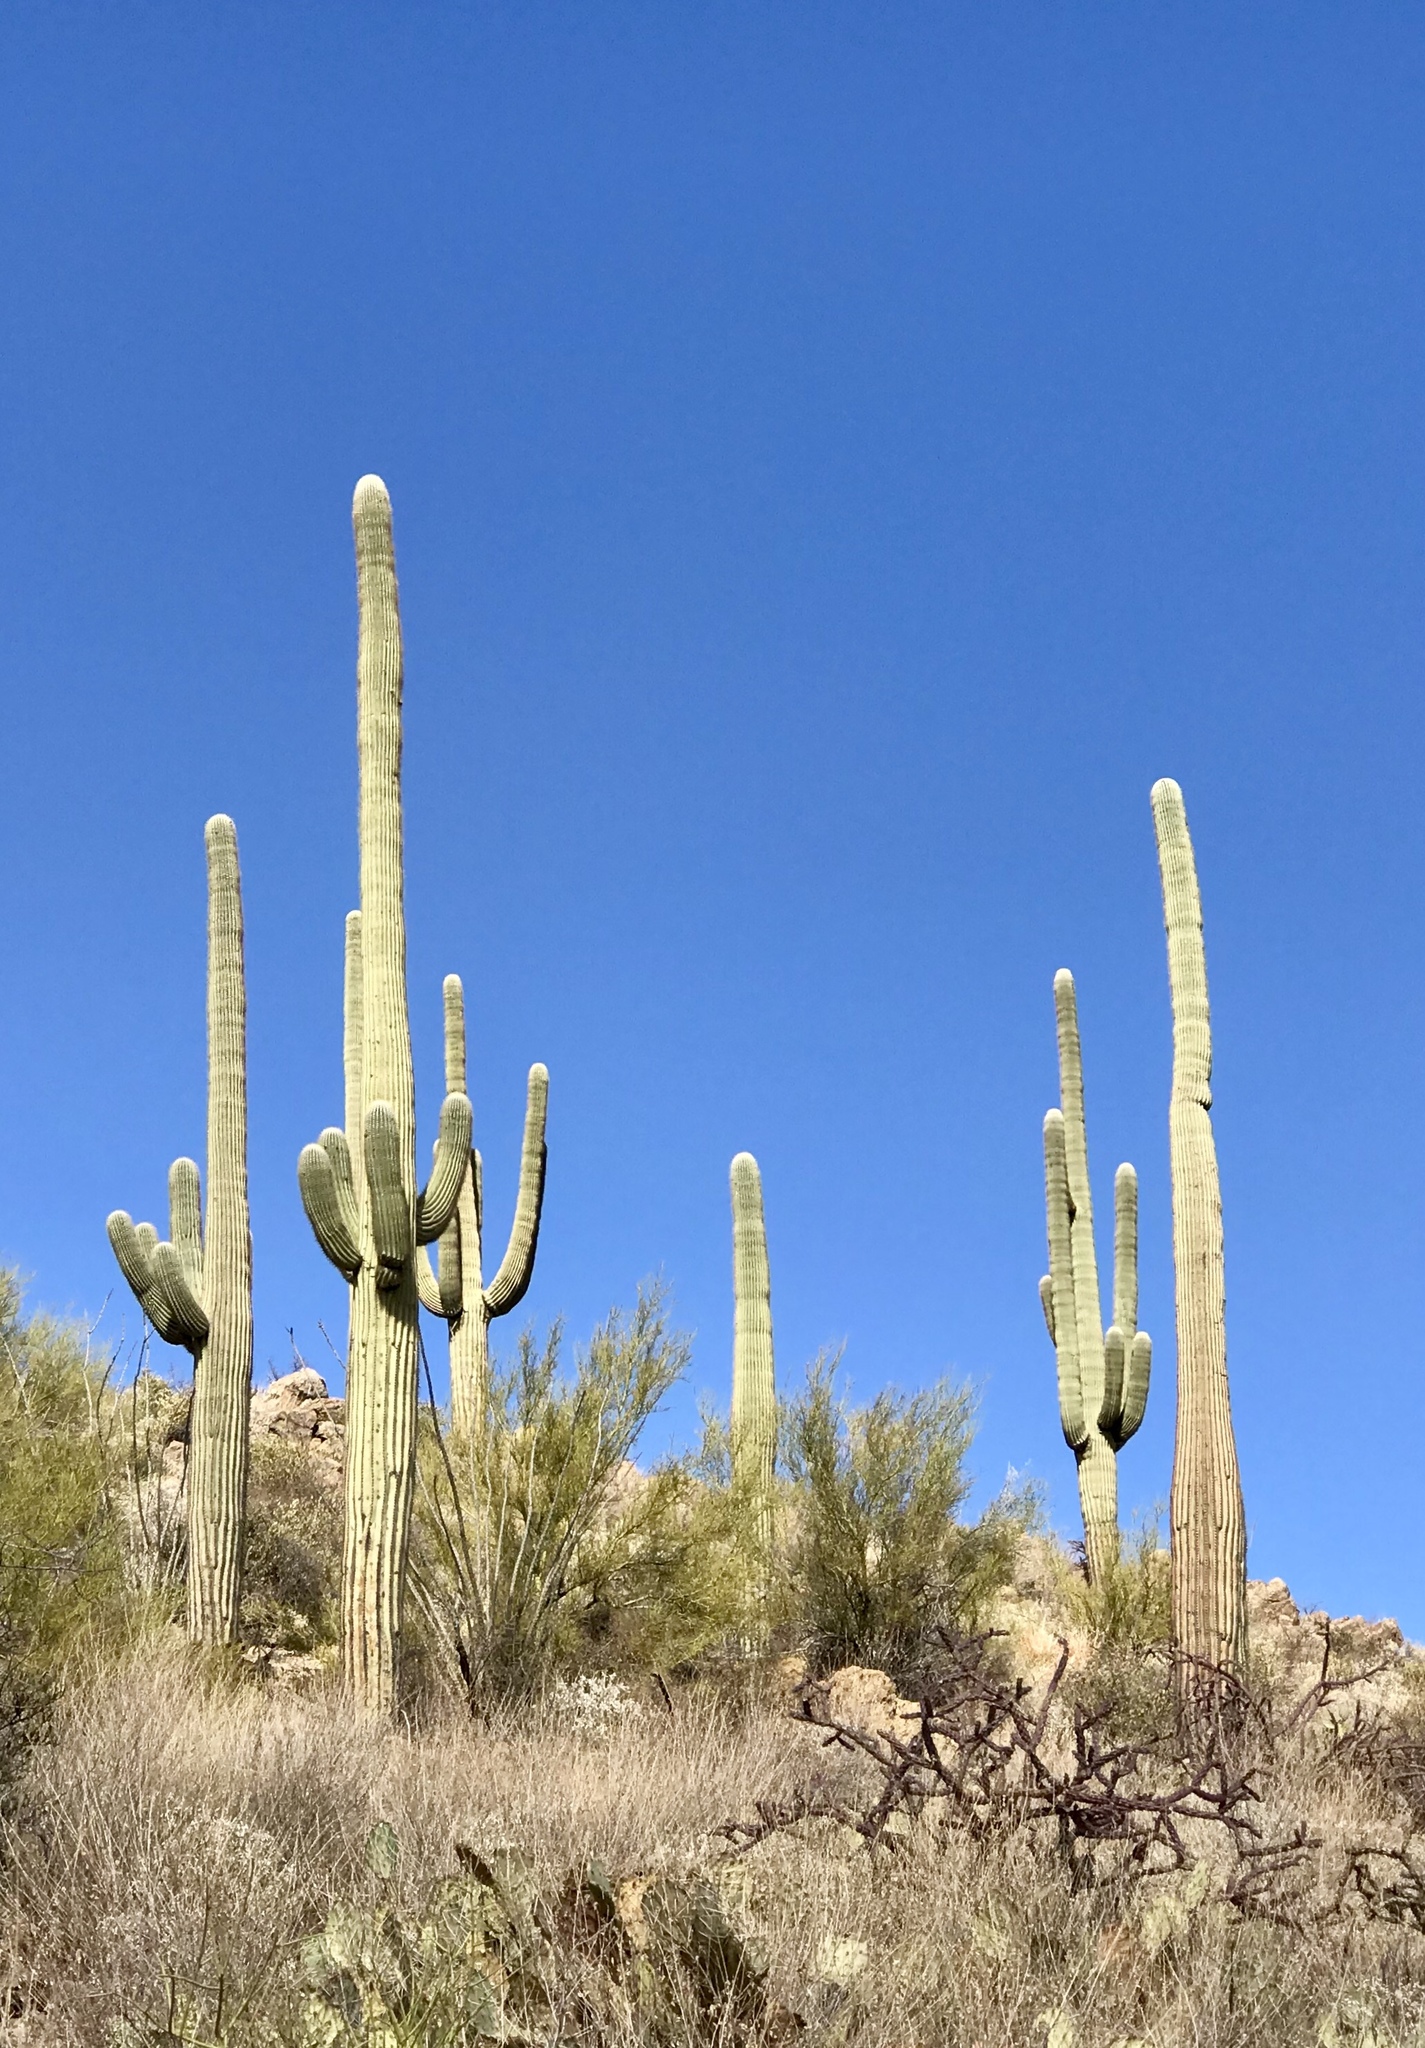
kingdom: Plantae
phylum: Tracheophyta
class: Magnoliopsida
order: Caryophyllales
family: Cactaceae
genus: Carnegiea
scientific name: Carnegiea gigantea
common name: Saguaro
